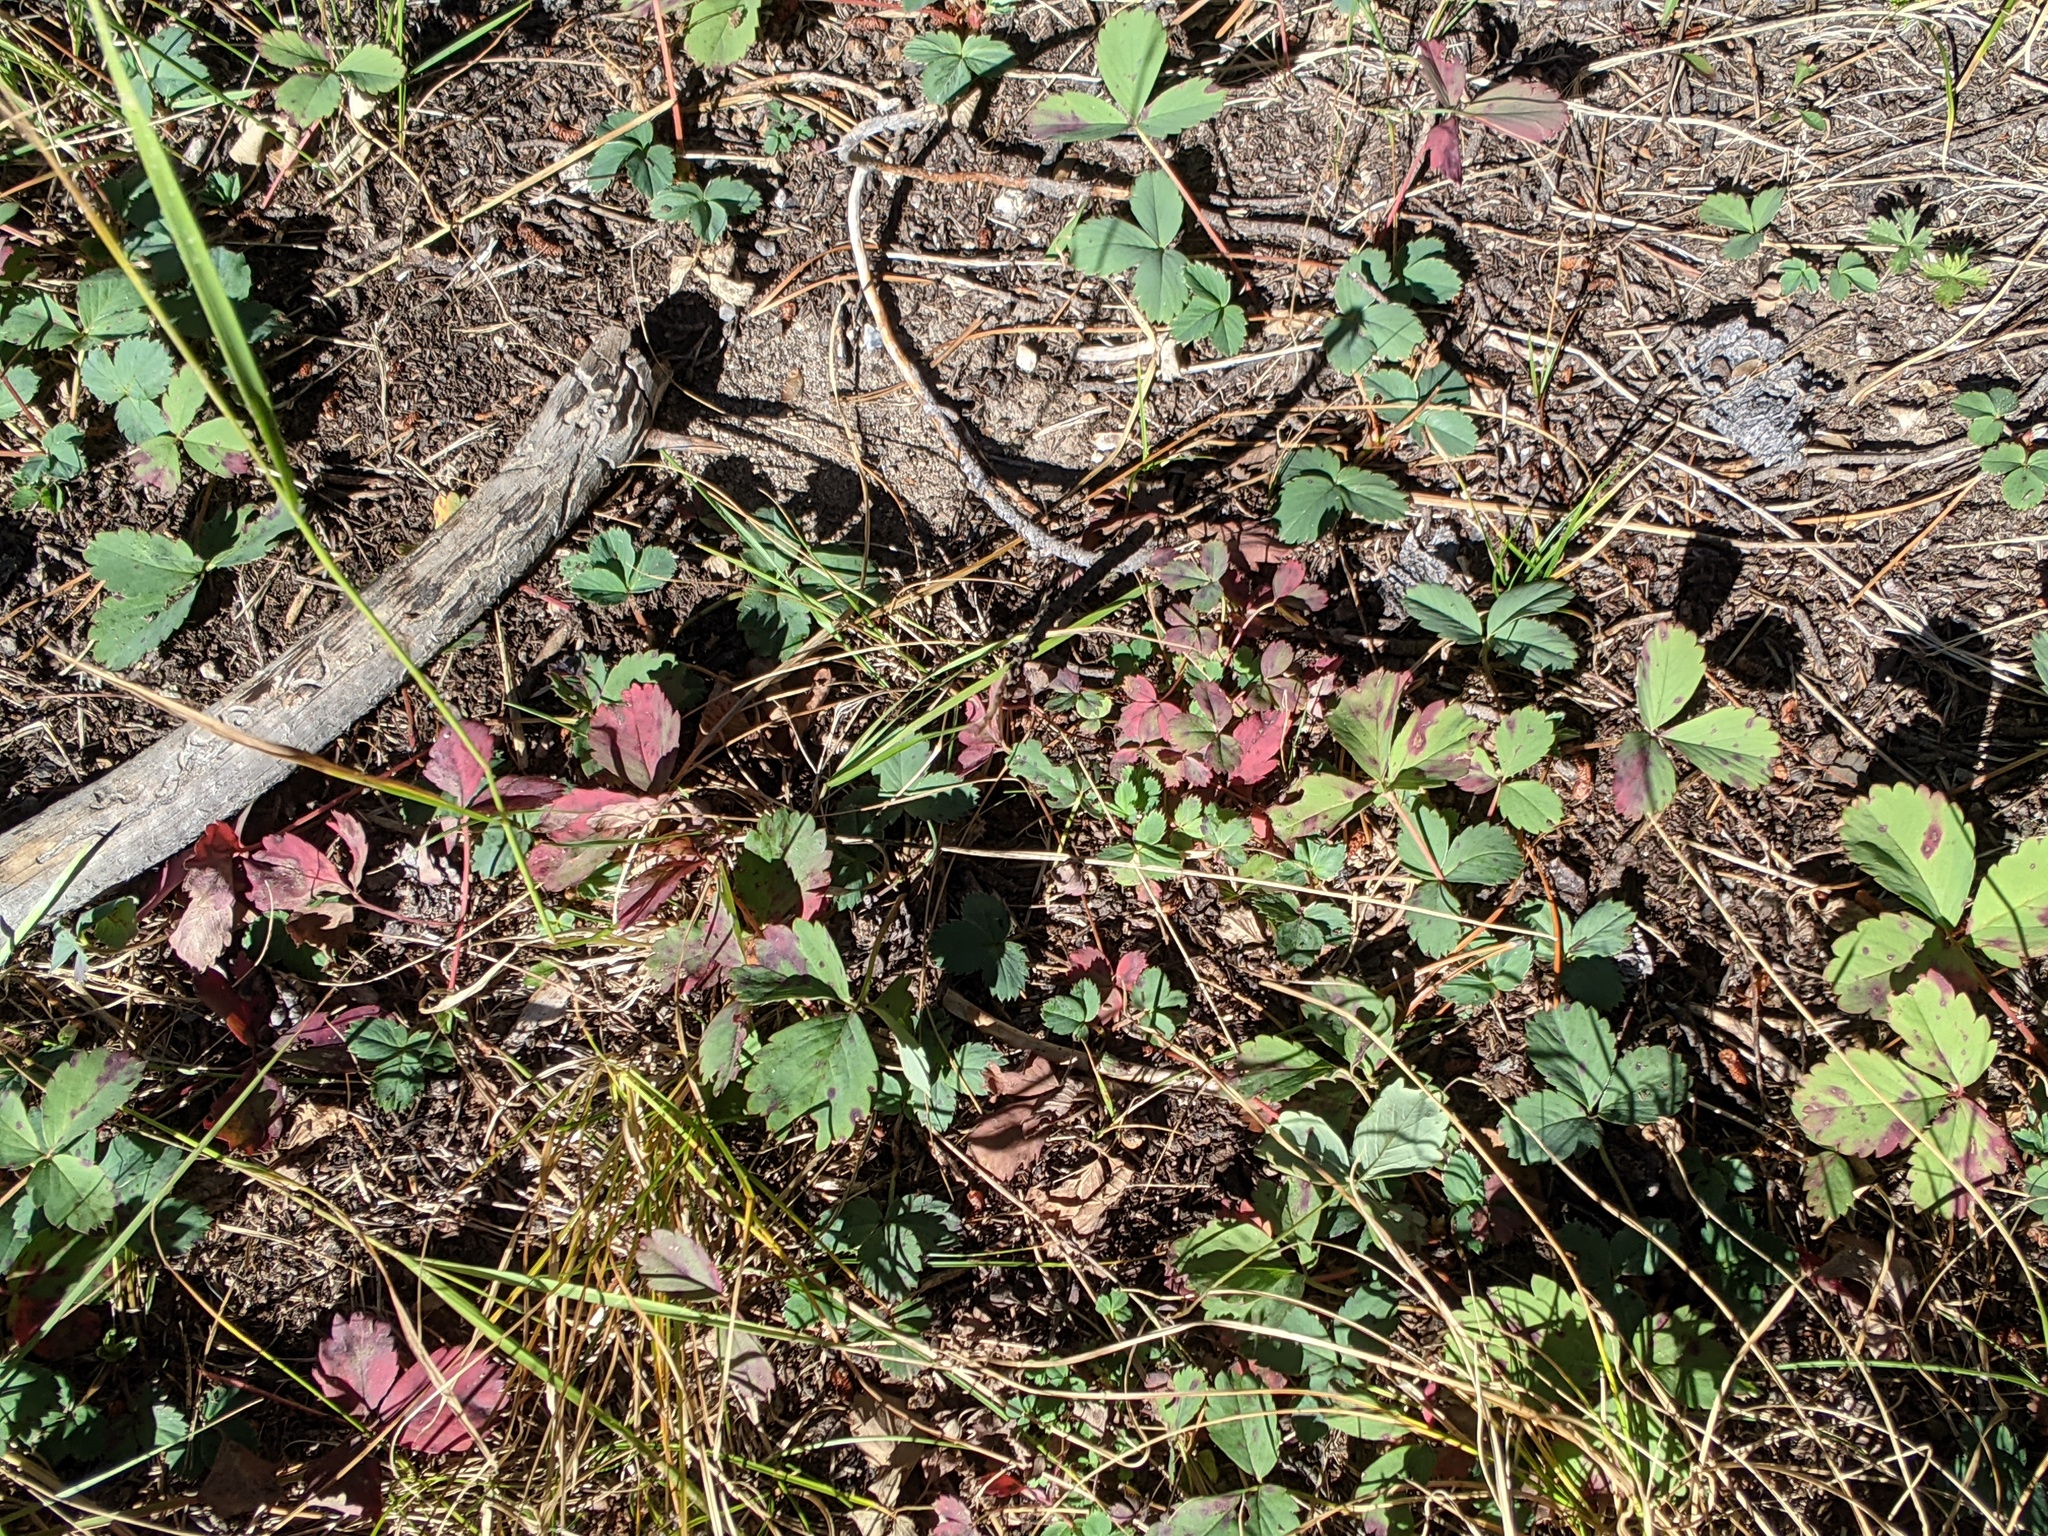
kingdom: Plantae
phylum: Tracheophyta
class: Magnoliopsida
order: Rosales
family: Rosaceae
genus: Fragaria
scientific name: Fragaria virginiana
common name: Thickleaved wild strawberry
